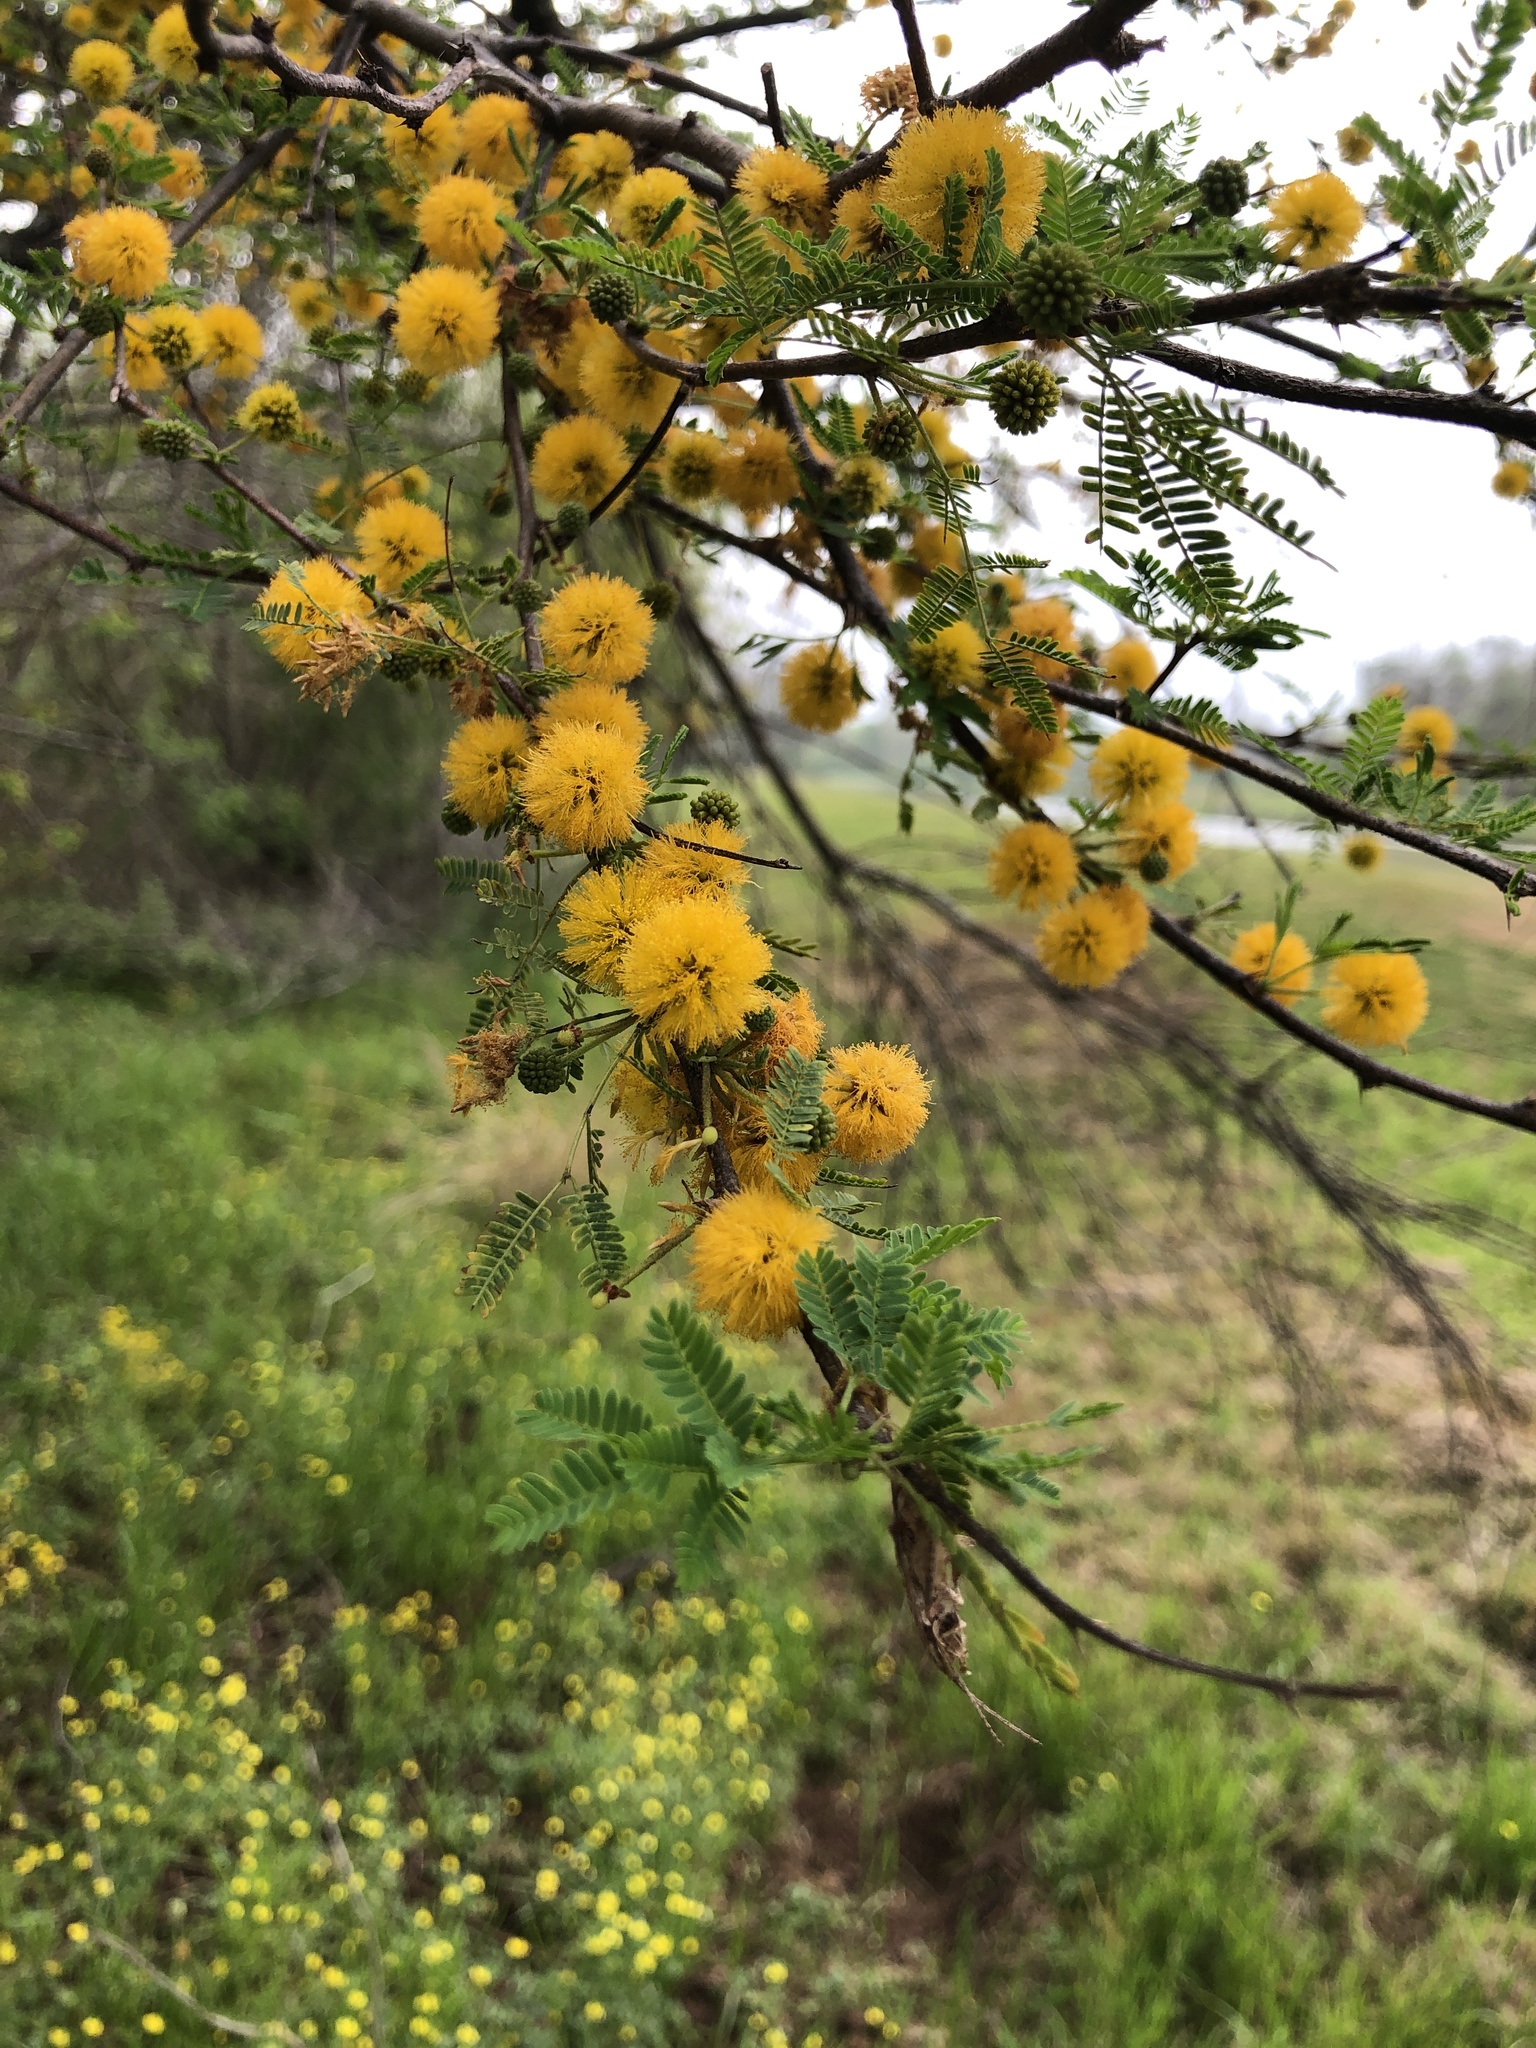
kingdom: Plantae
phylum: Tracheophyta
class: Magnoliopsida
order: Fabales
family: Fabaceae
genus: Vachellia
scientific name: Vachellia farnesiana
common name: Sweet acacia
